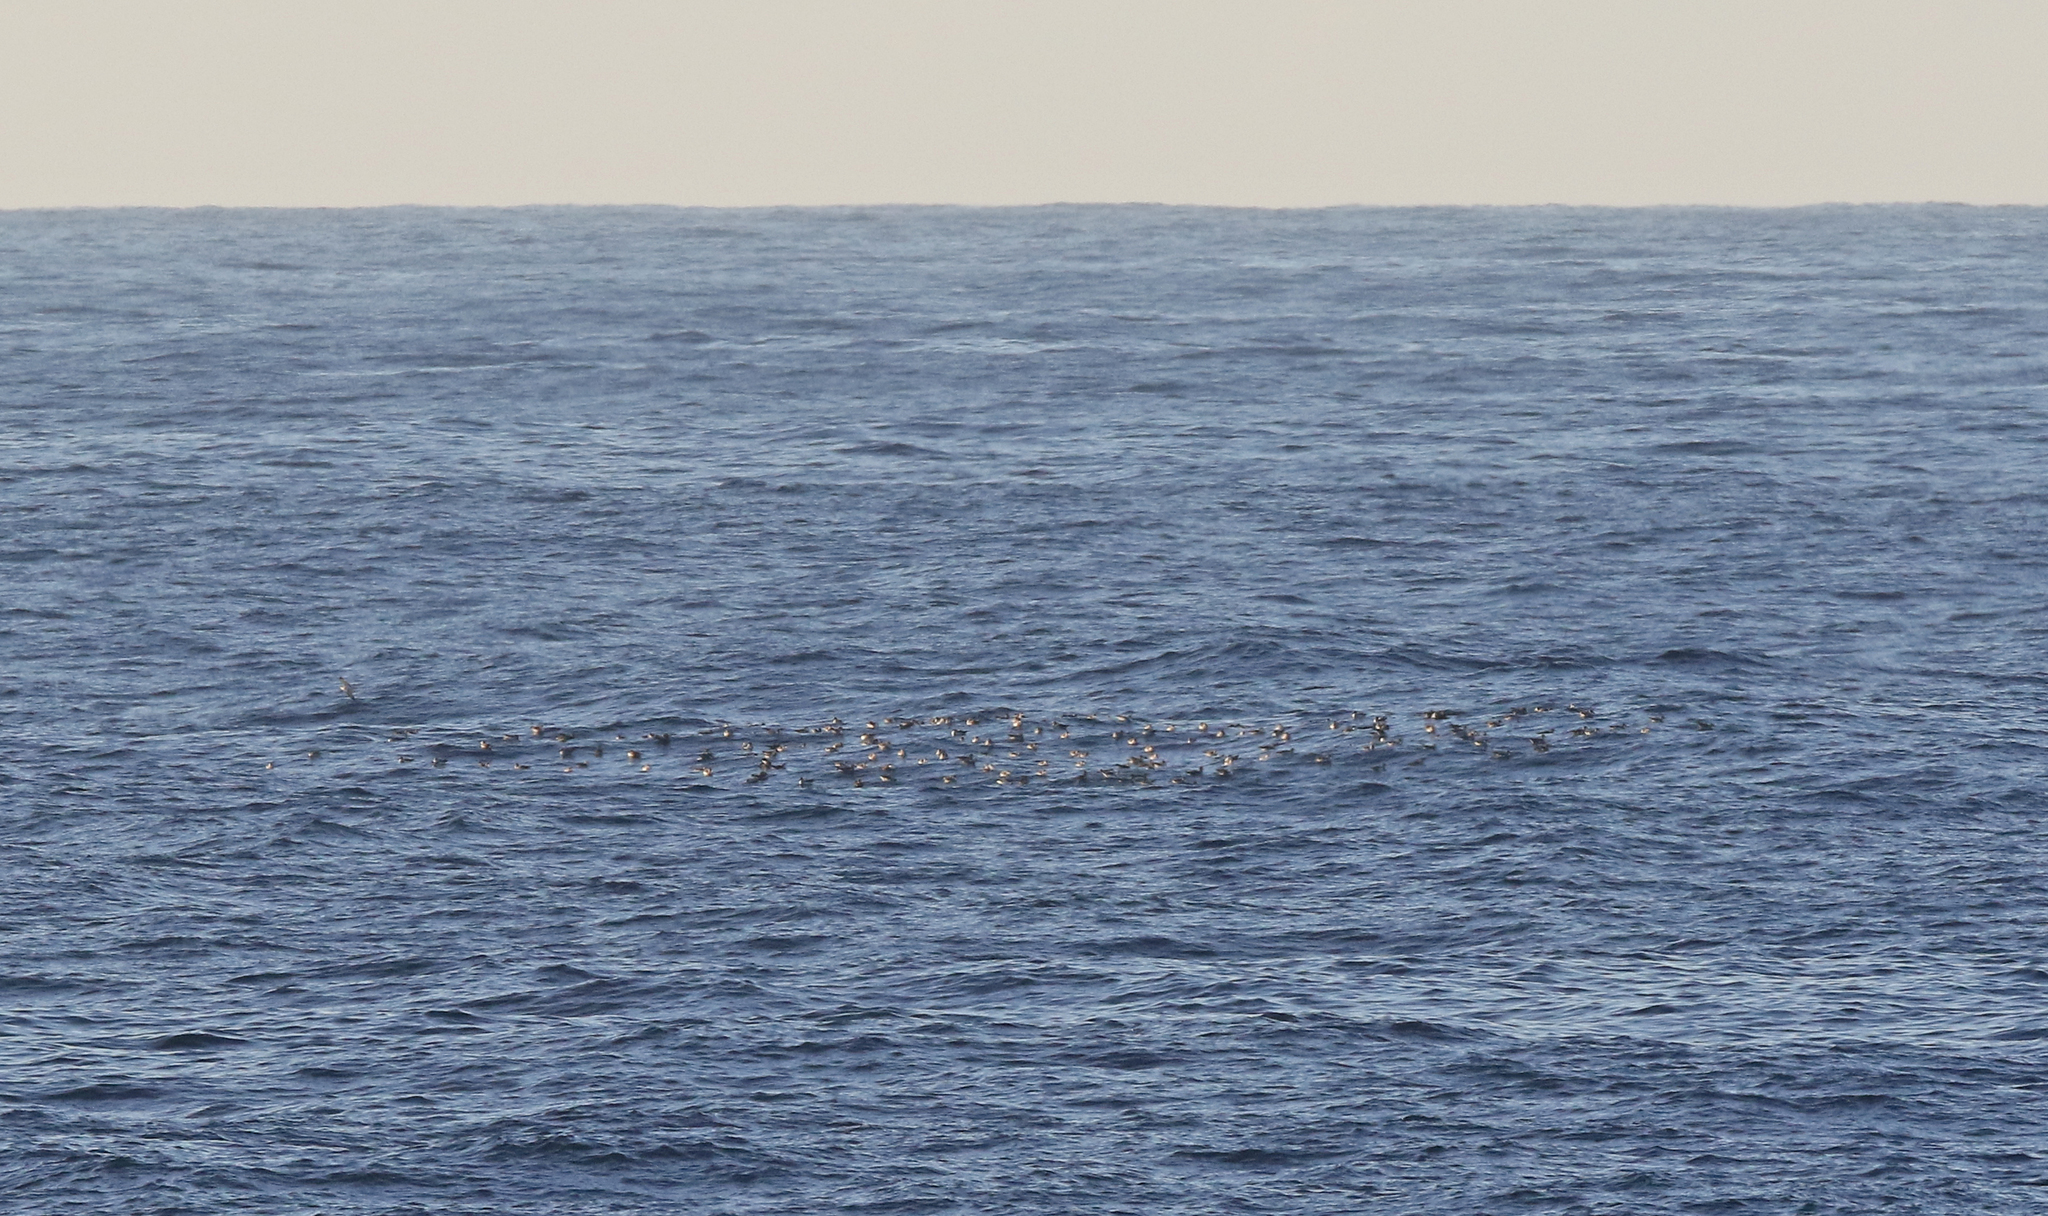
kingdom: Animalia
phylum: Chordata
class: Aves
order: Procellariiformes
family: Procellariidae
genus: Calonectris
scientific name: Calonectris diomedea
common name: Cory's shearwater
